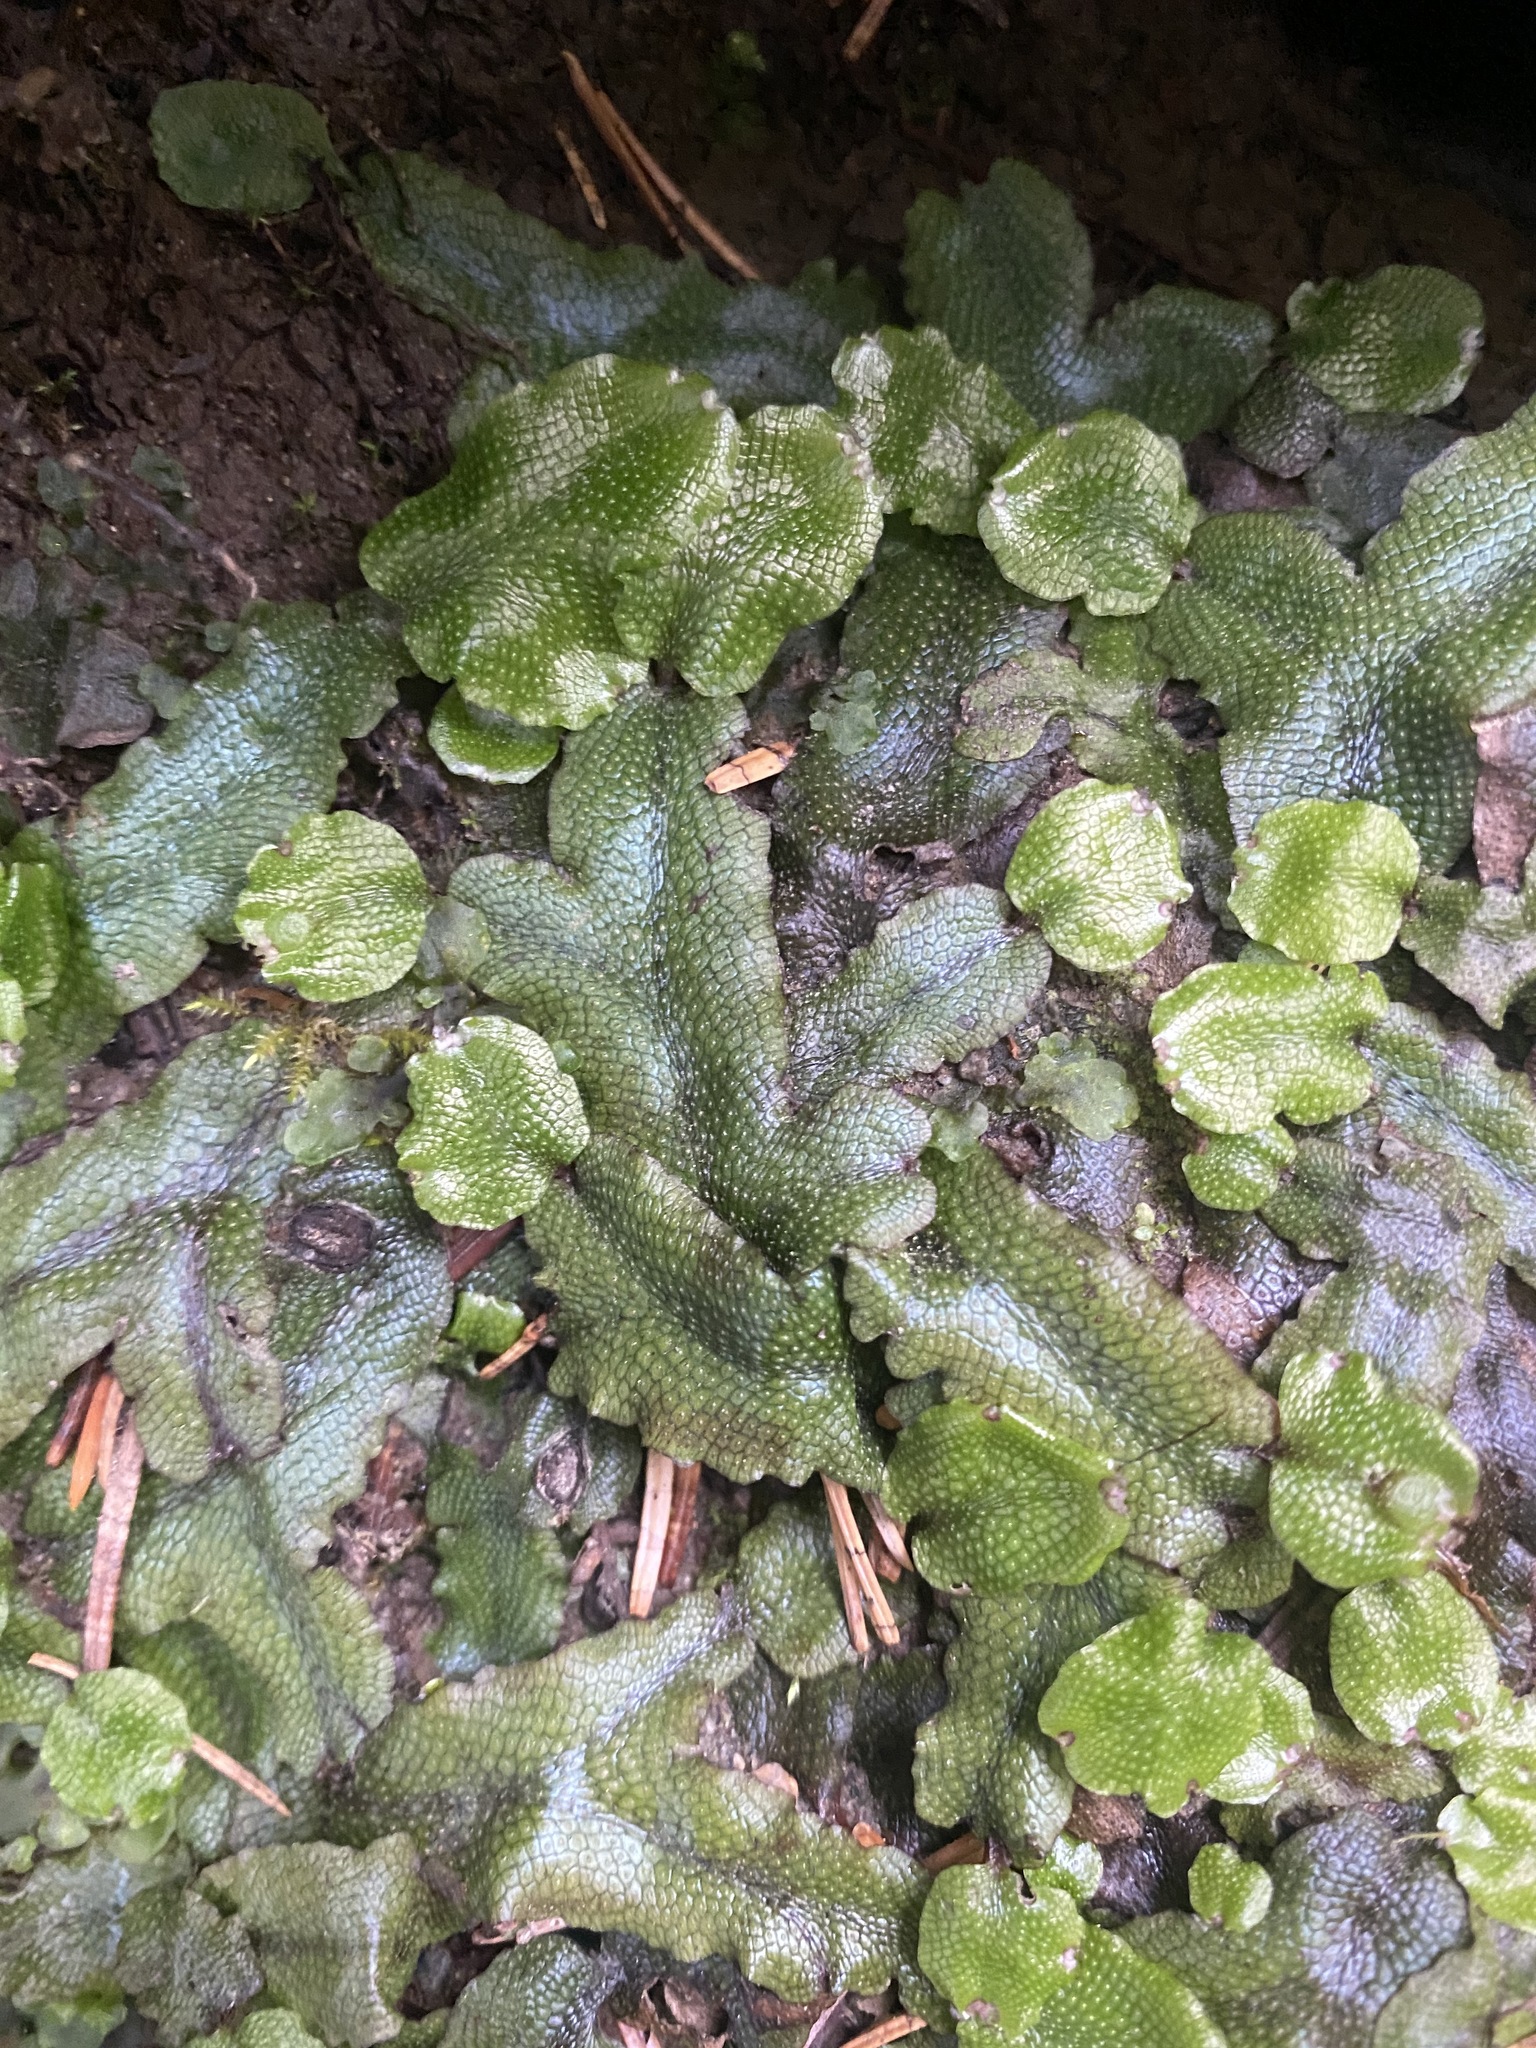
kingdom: Plantae
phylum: Marchantiophyta
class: Marchantiopsida
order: Marchantiales
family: Conocephalaceae
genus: Conocephalum
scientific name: Conocephalum salebrosum
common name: Cat-tongue liverwort
